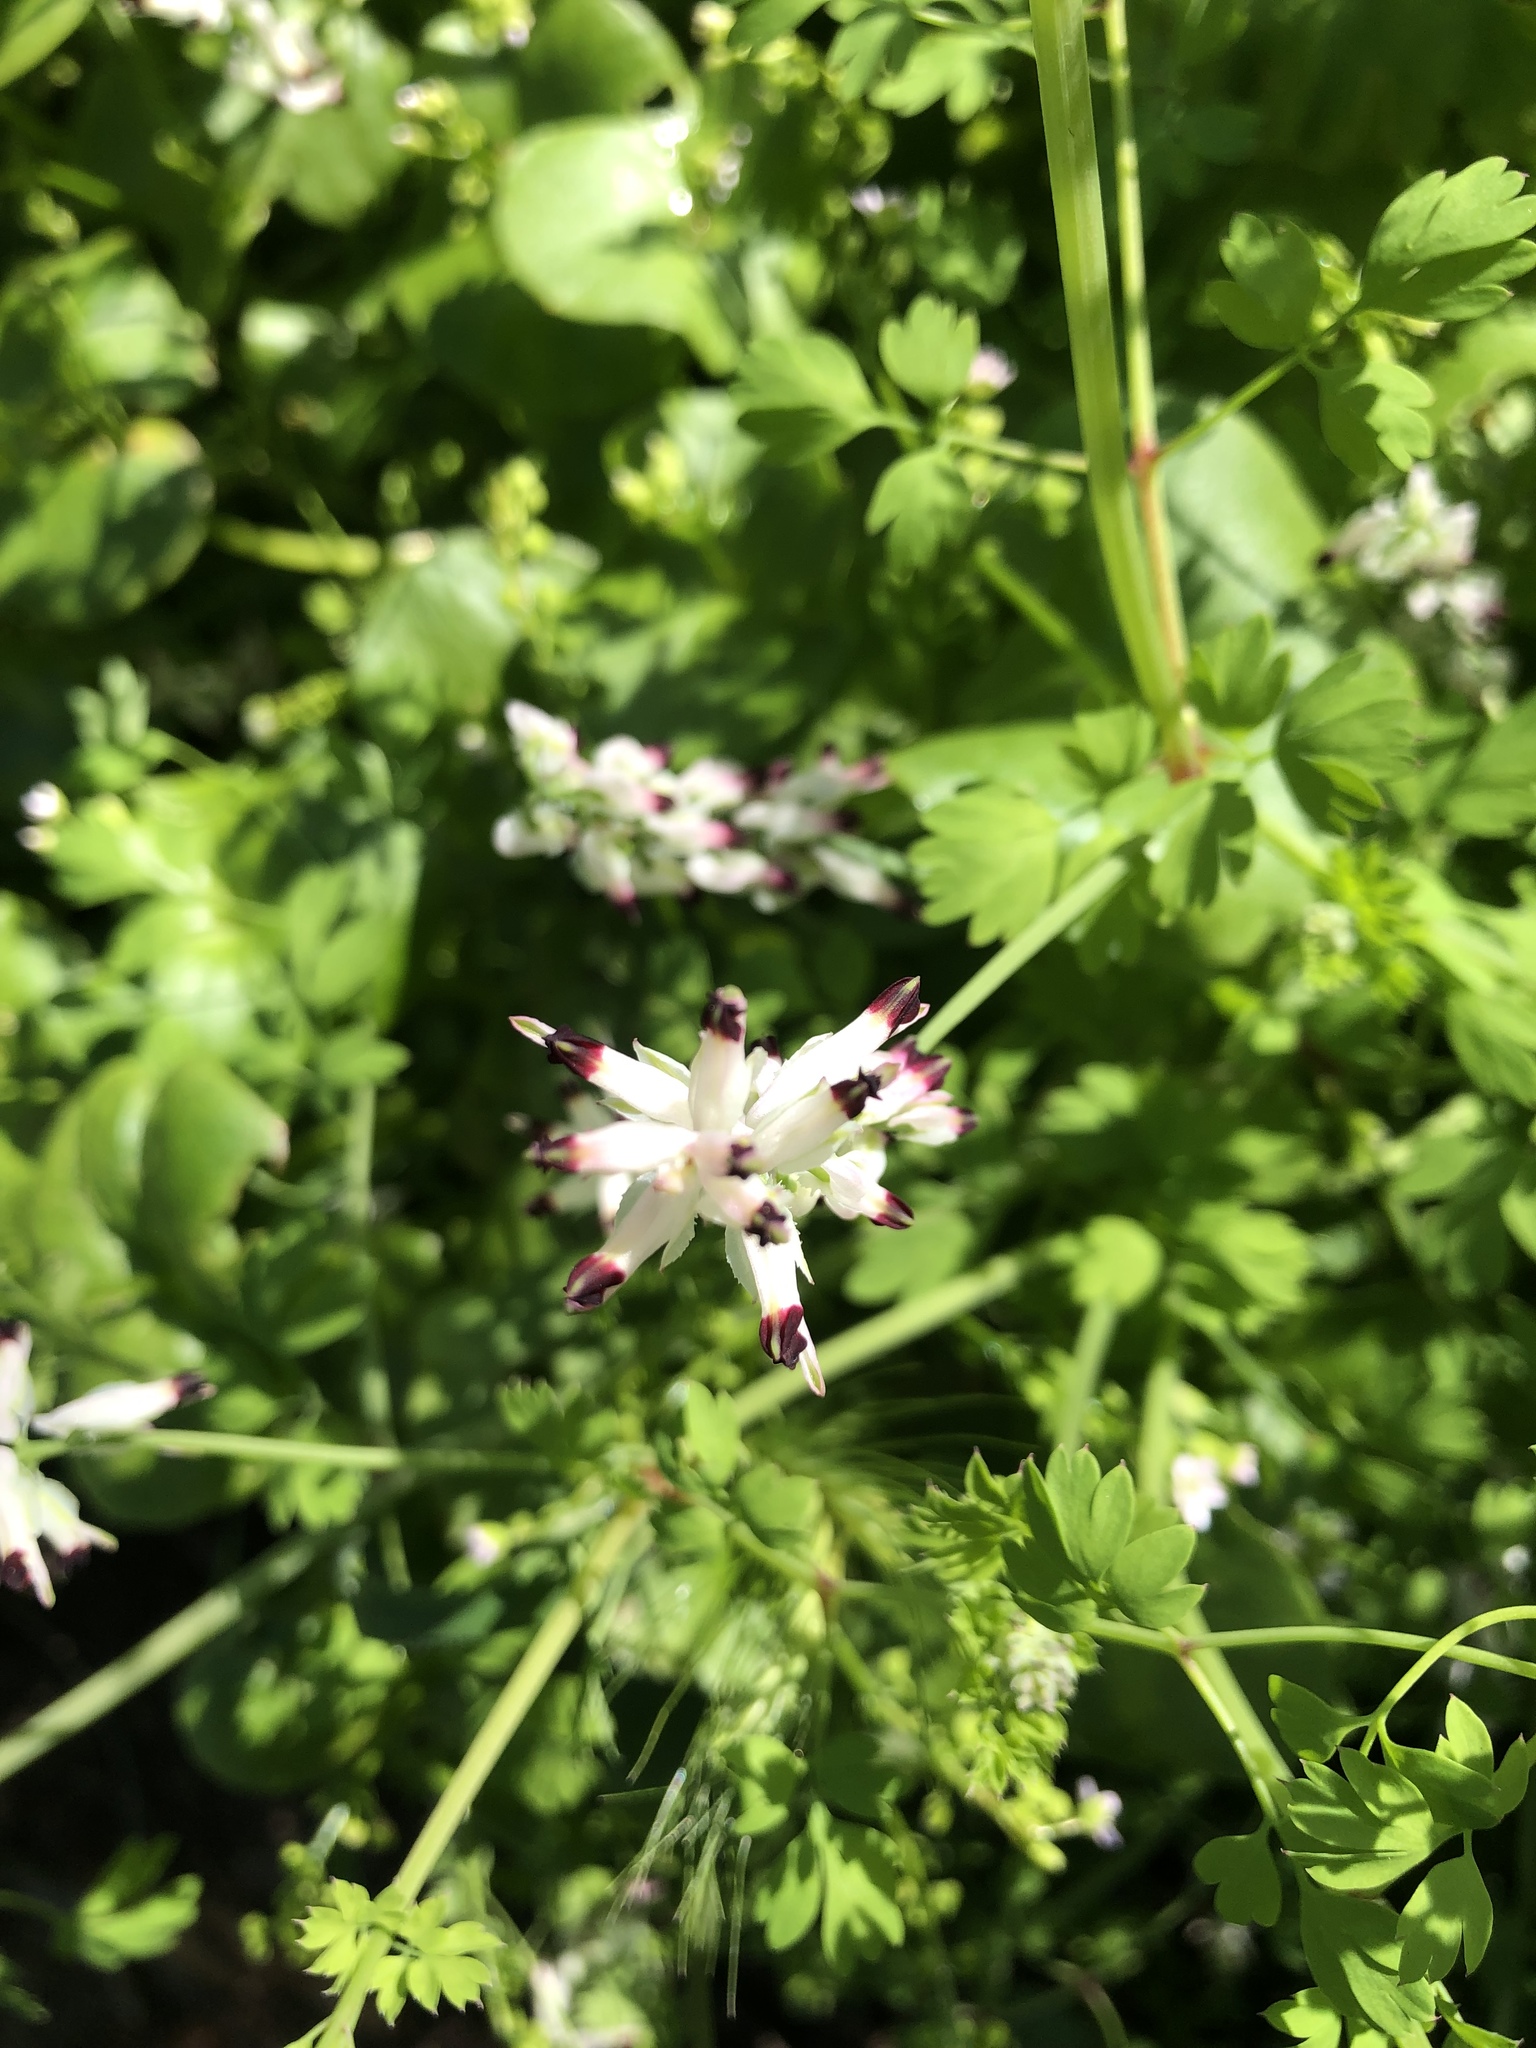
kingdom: Plantae
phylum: Tracheophyta
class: Magnoliopsida
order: Ranunculales
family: Papaveraceae
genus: Fumaria
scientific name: Fumaria capreolata
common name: White ramping-fumitory
